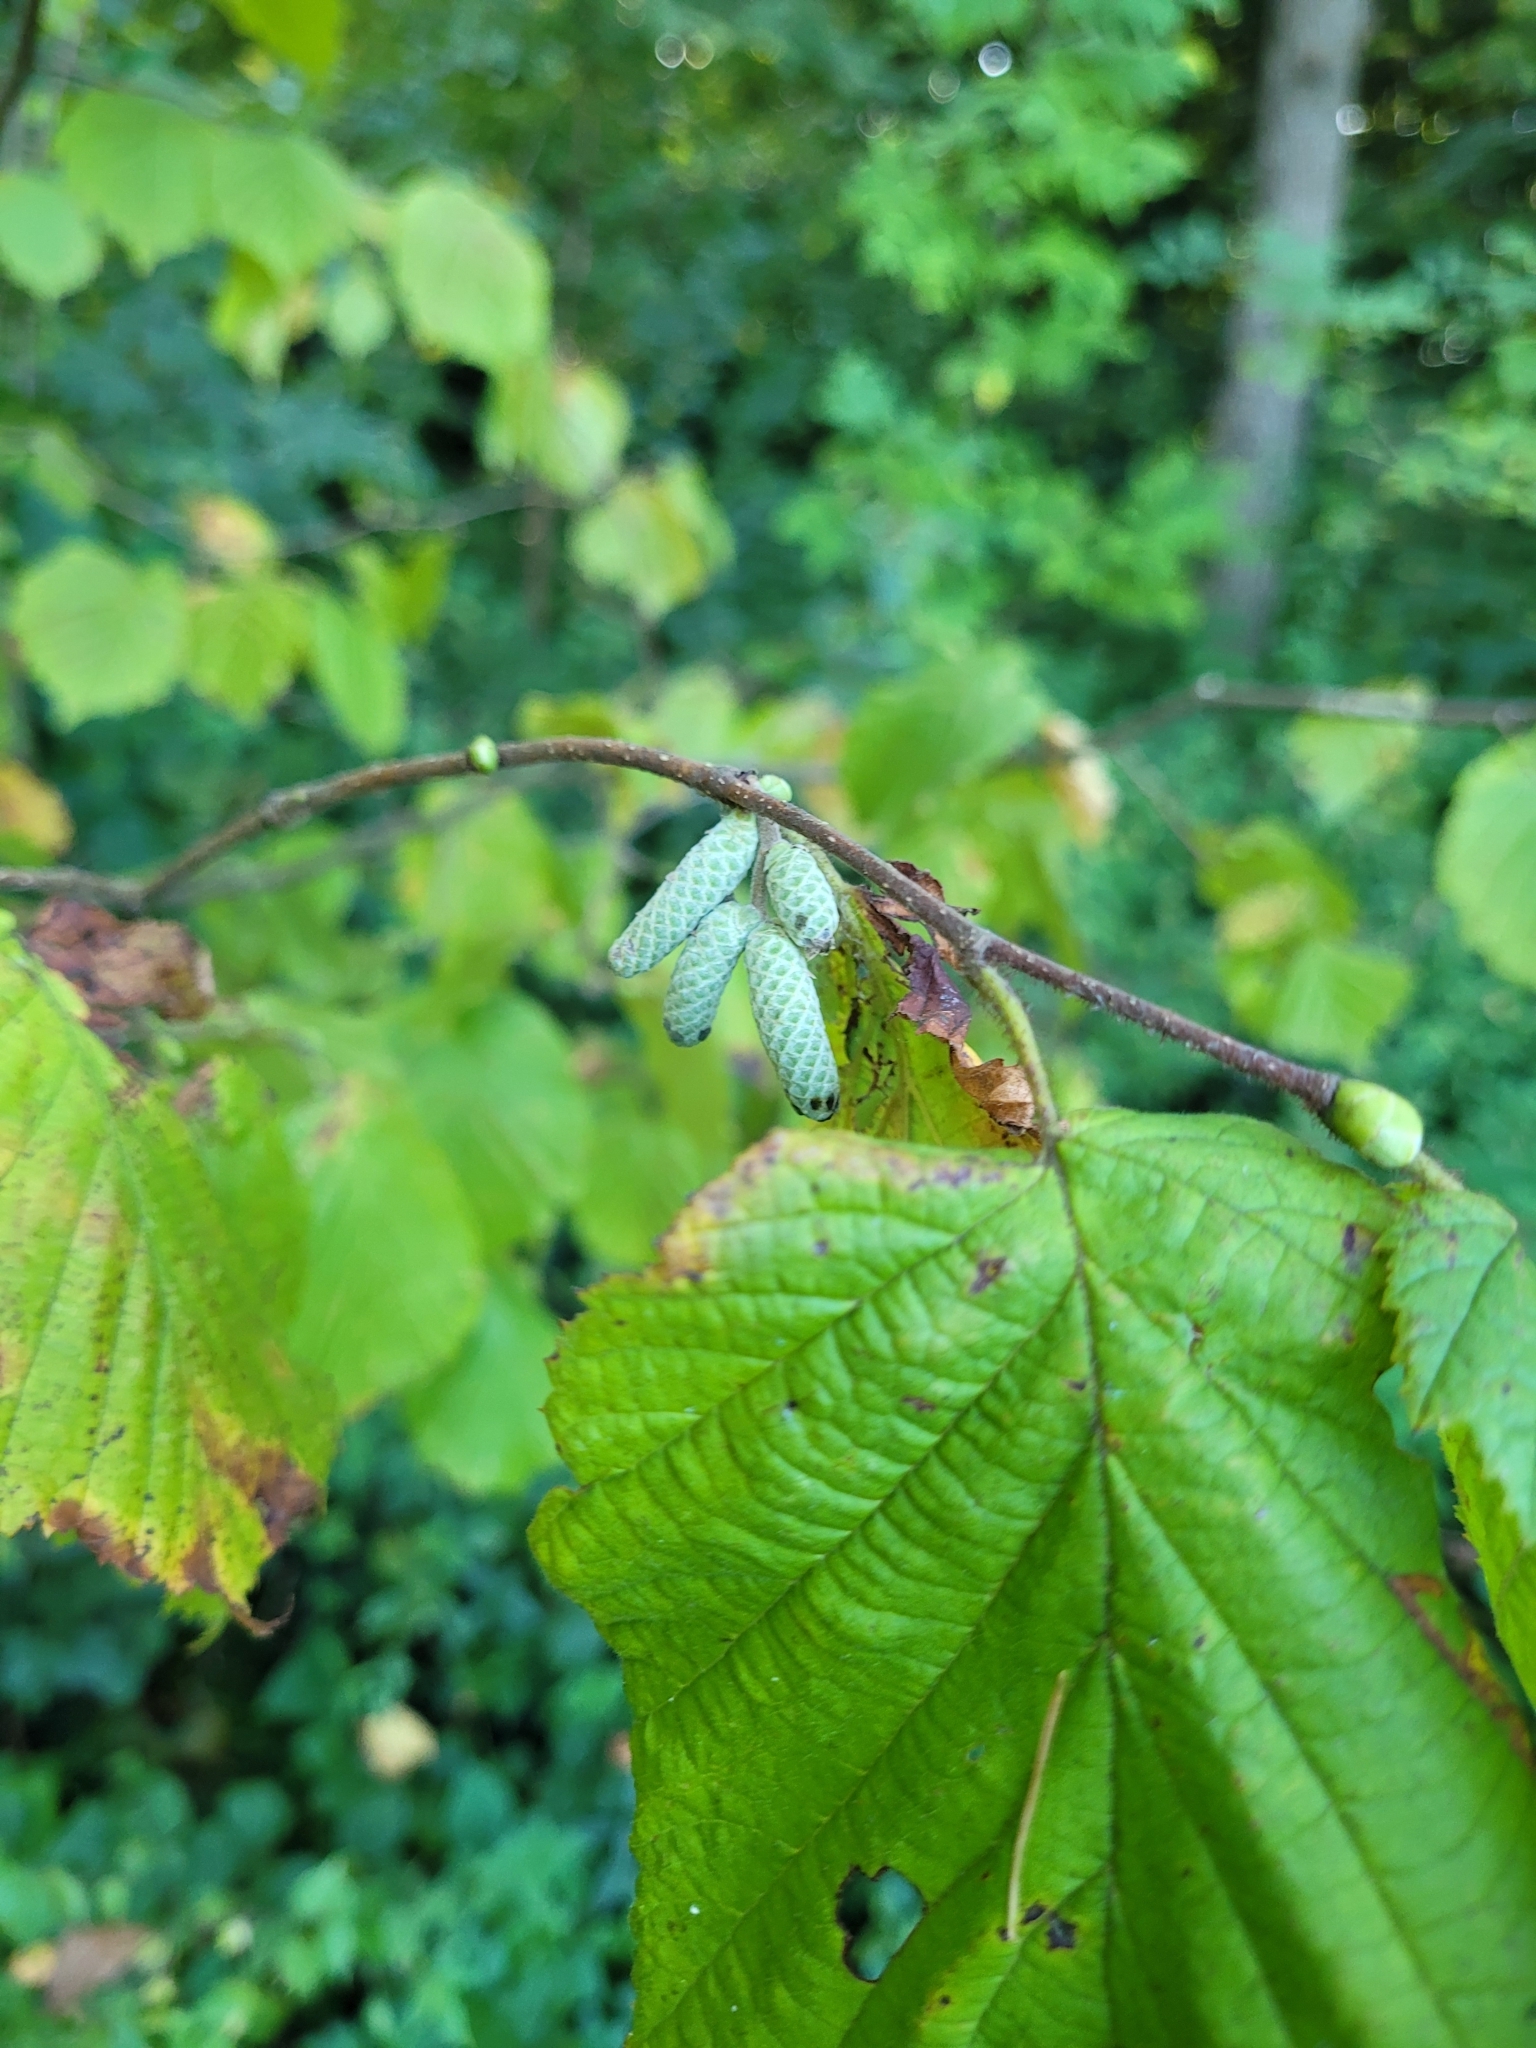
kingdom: Plantae
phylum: Tracheophyta
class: Magnoliopsida
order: Fagales
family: Betulaceae
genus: Corylus
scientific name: Corylus avellana
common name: European hazel
